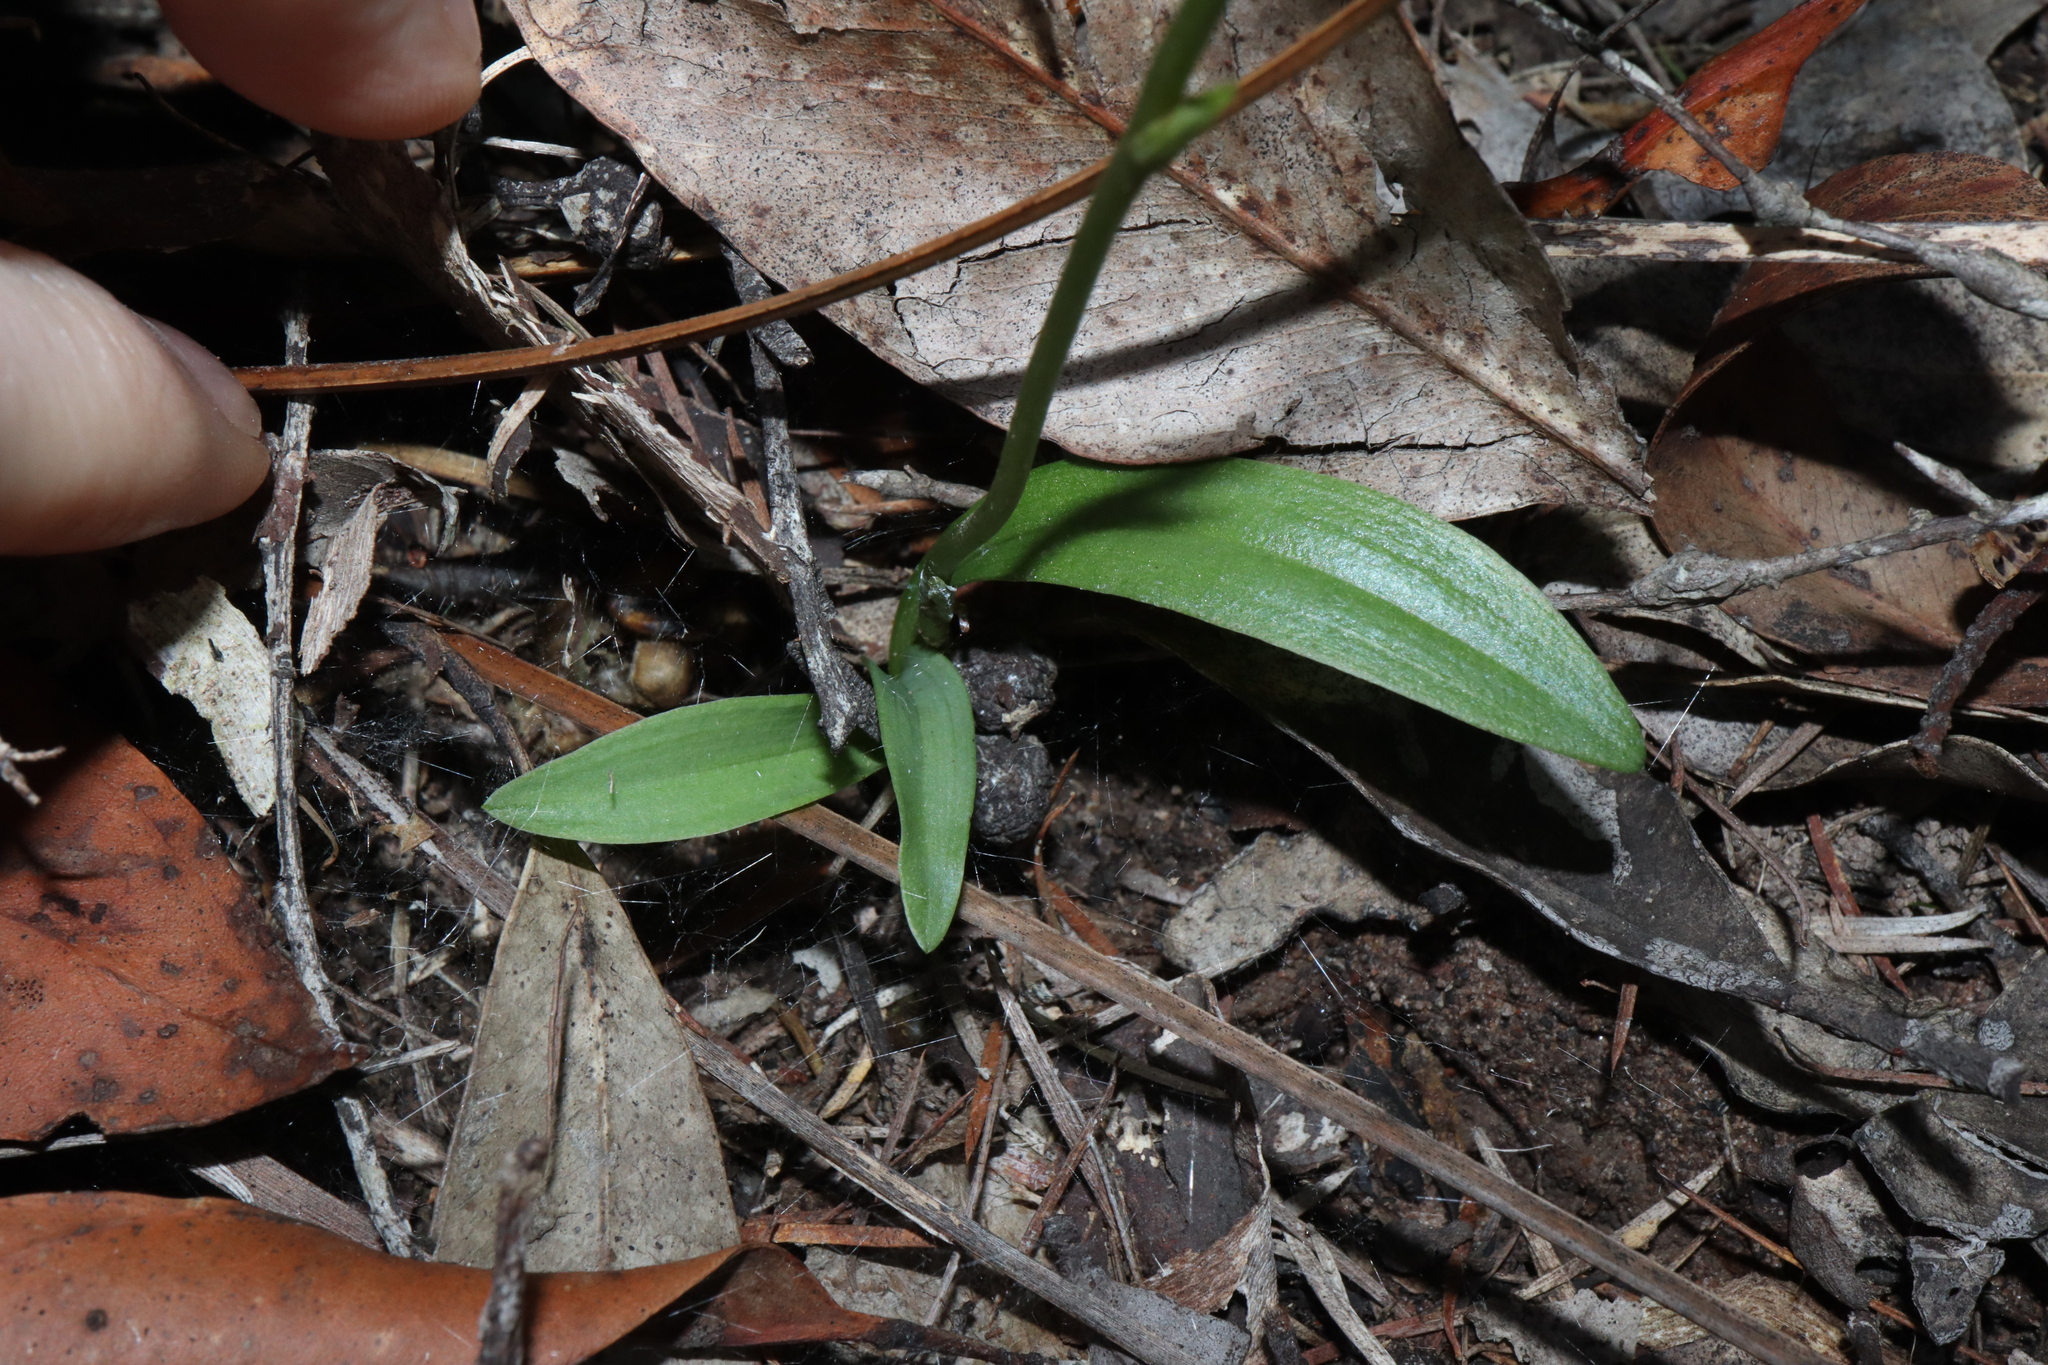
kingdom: Plantae
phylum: Tracheophyta
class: Liliopsida
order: Asparagales
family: Orchidaceae
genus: Arthrochilus
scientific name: Arthrochilus prolixus
